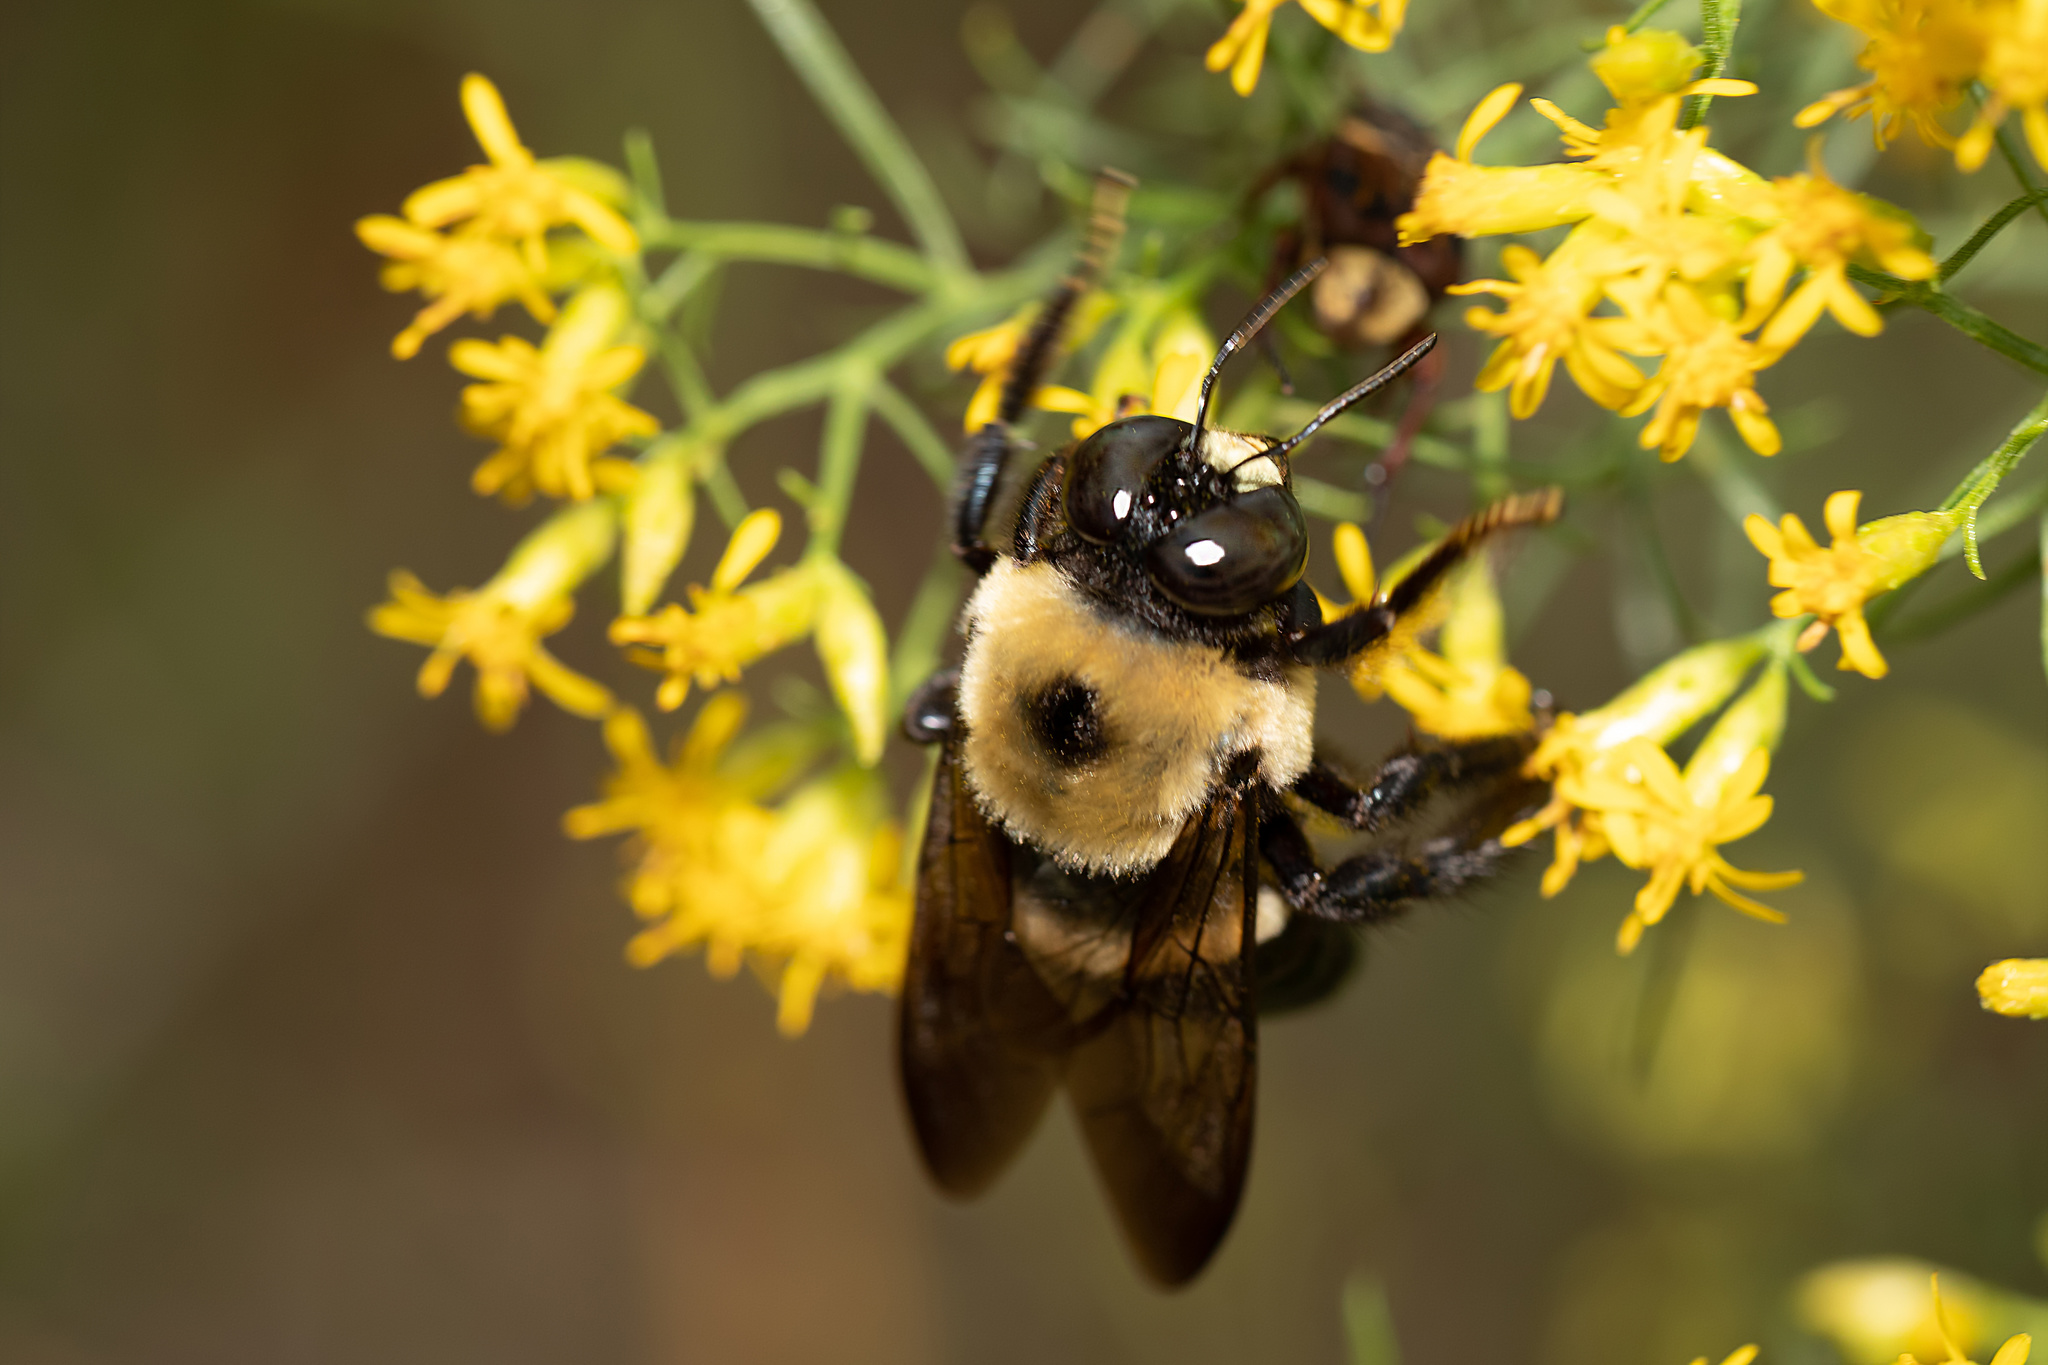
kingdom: Animalia
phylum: Arthropoda
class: Insecta
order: Hymenoptera
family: Apidae
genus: Xylocopa
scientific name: Xylocopa virginica
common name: Carpenter bee
